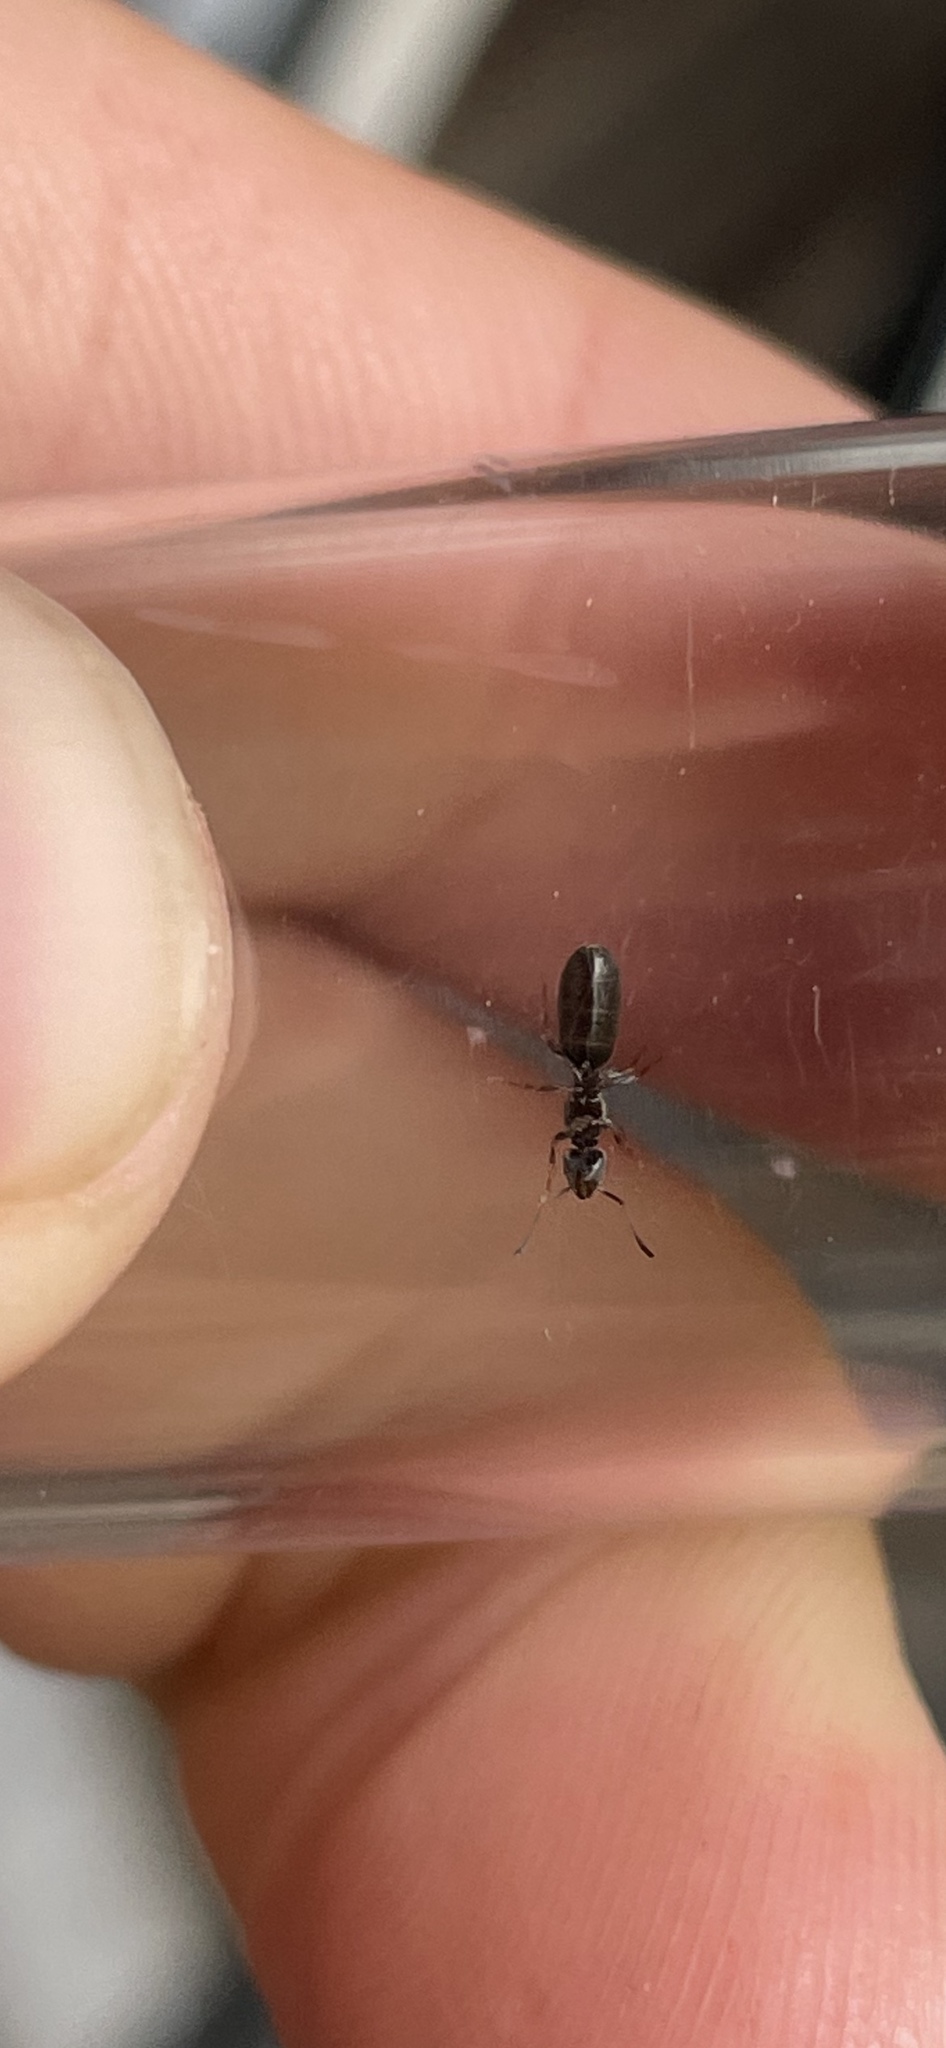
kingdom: Animalia
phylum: Arthropoda
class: Insecta
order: Hymenoptera
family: Formicidae
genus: Tapinoma
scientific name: Tapinoma sessile
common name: Odorous house ant
